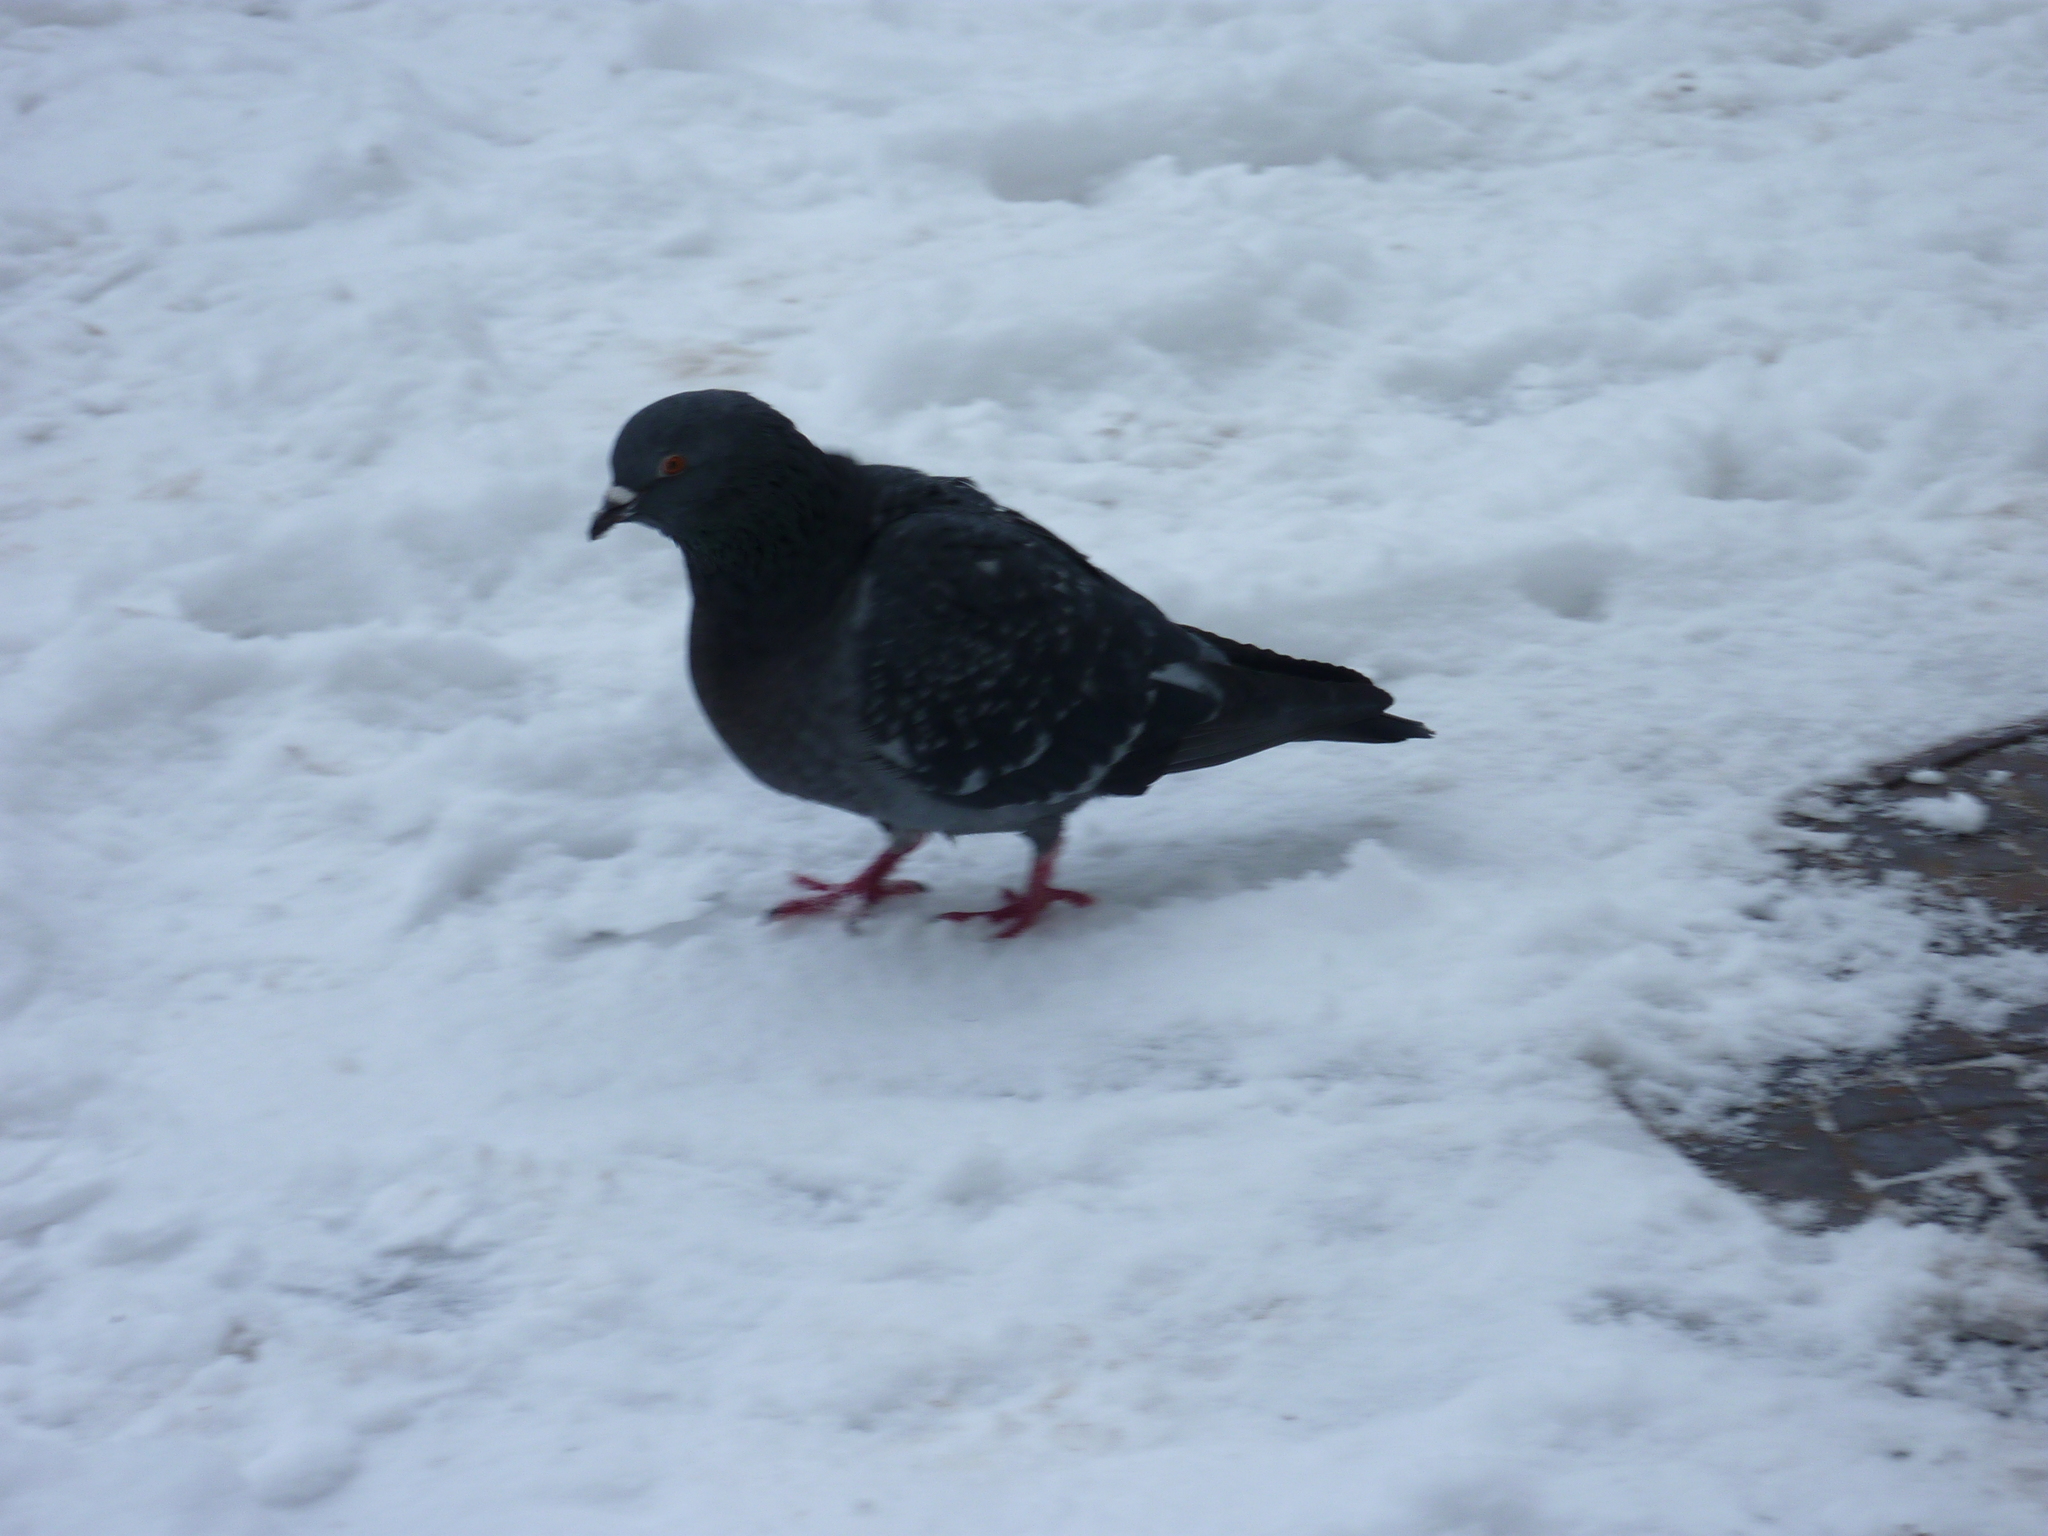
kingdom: Animalia
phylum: Chordata
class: Aves
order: Columbiformes
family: Columbidae
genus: Columba
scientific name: Columba livia
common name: Rock pigeon
